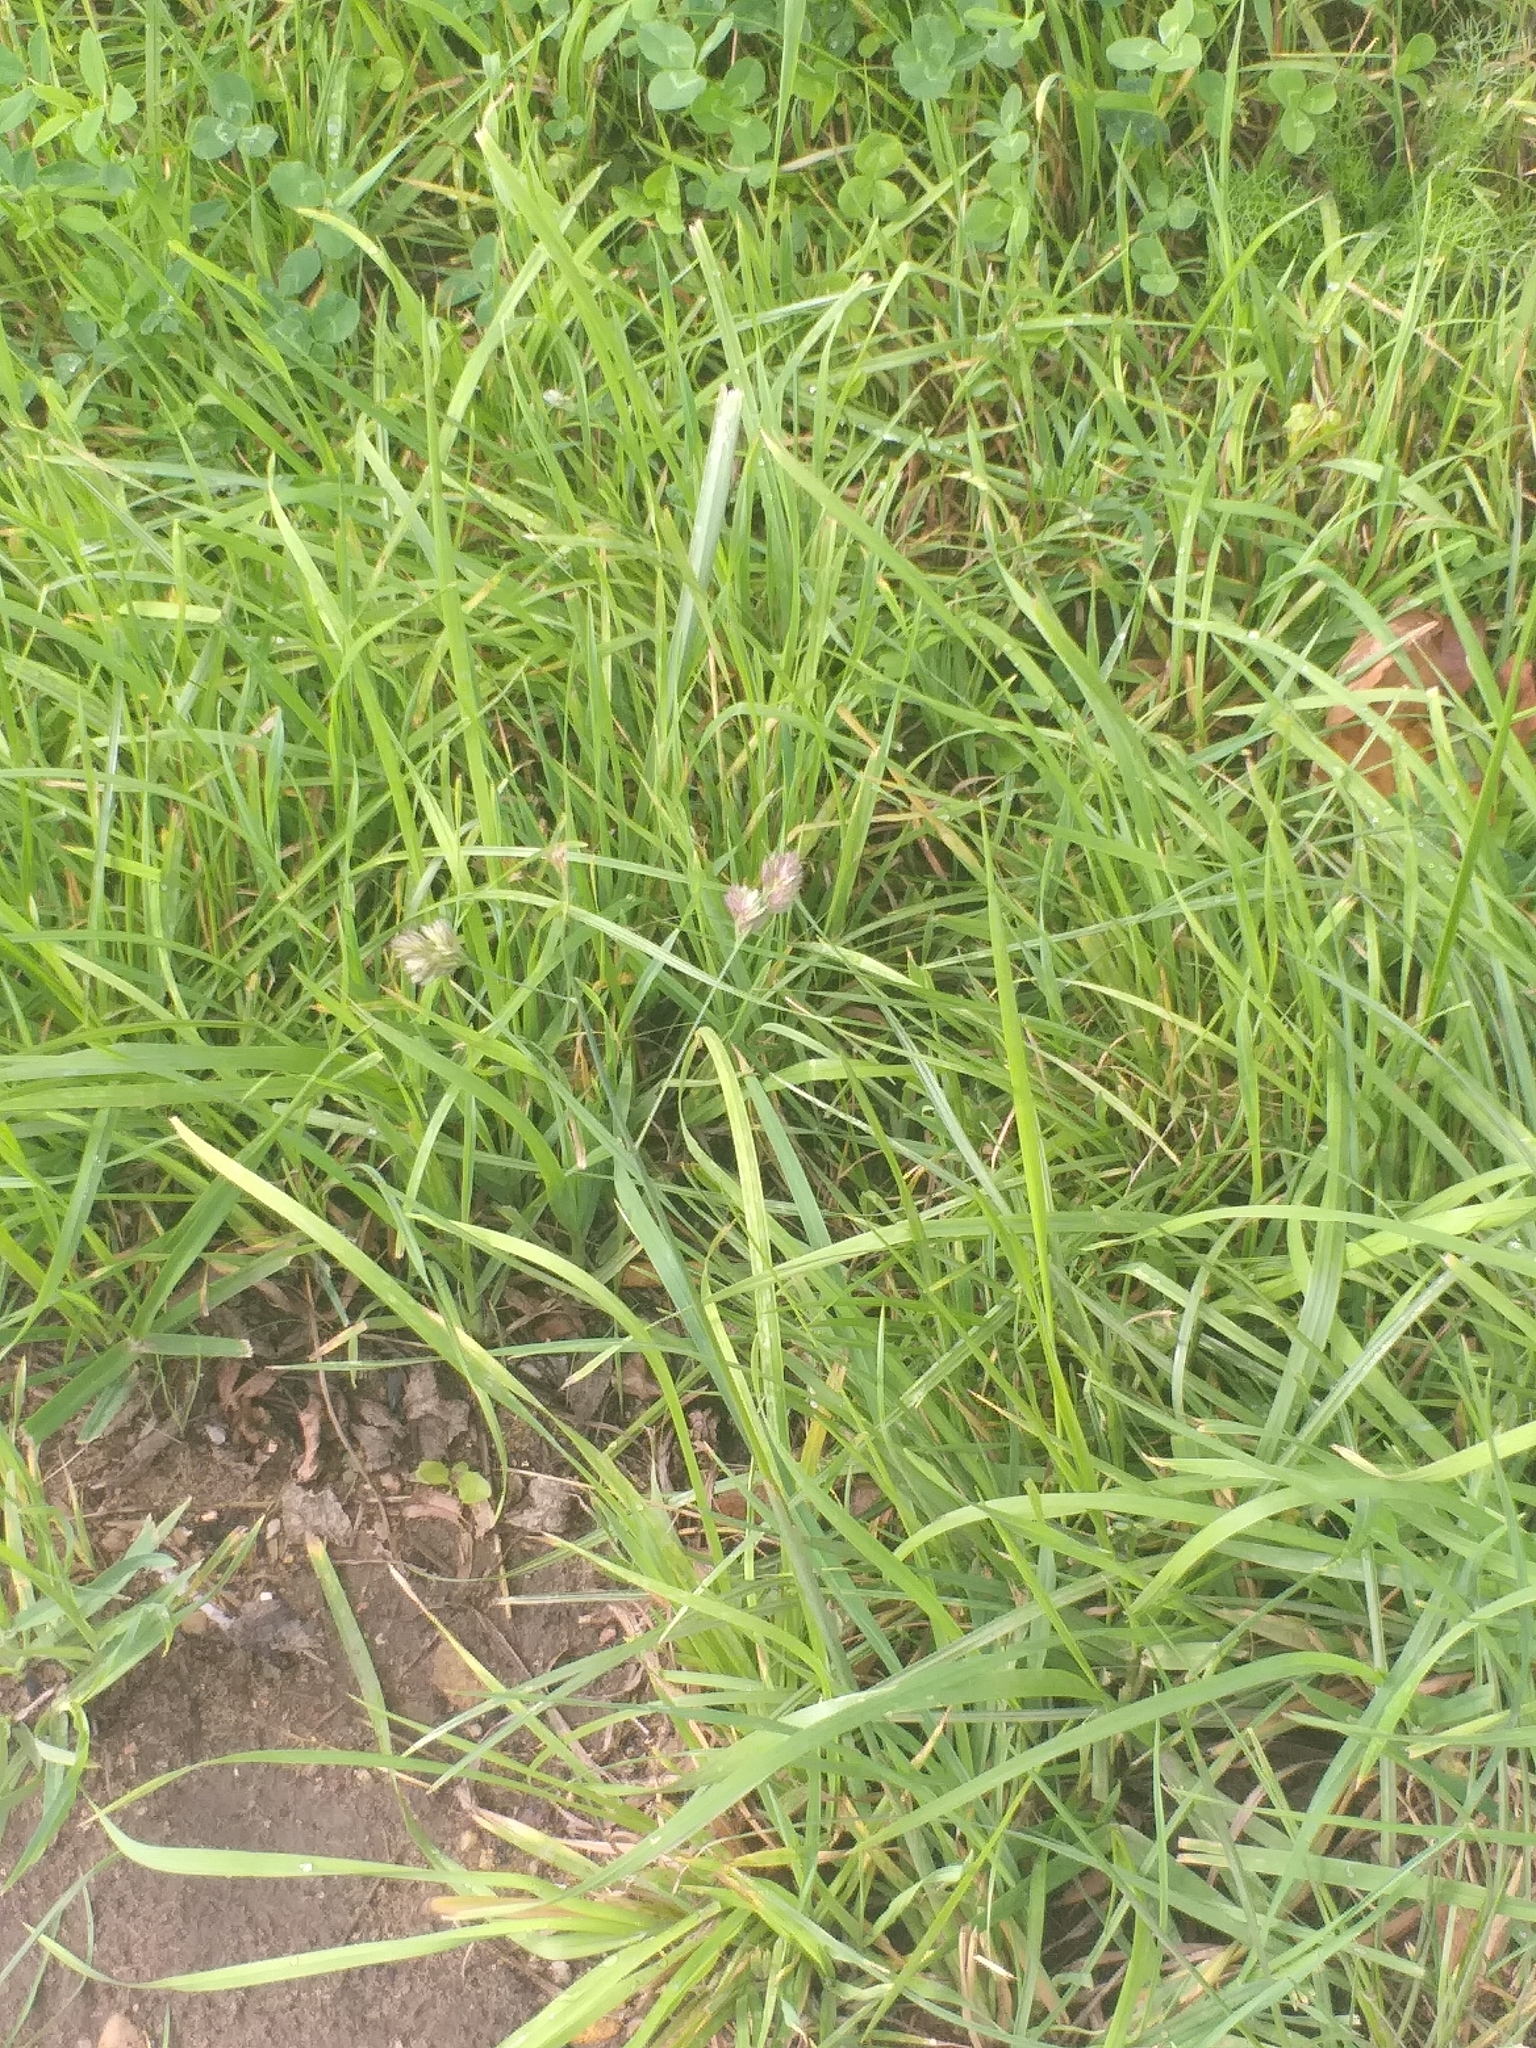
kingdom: Plantae
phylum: Tracheophyta
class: Liliopsida
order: Poales
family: Poaceae
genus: Dactylis
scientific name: Dactylis glomerata
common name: Orchardgrass
